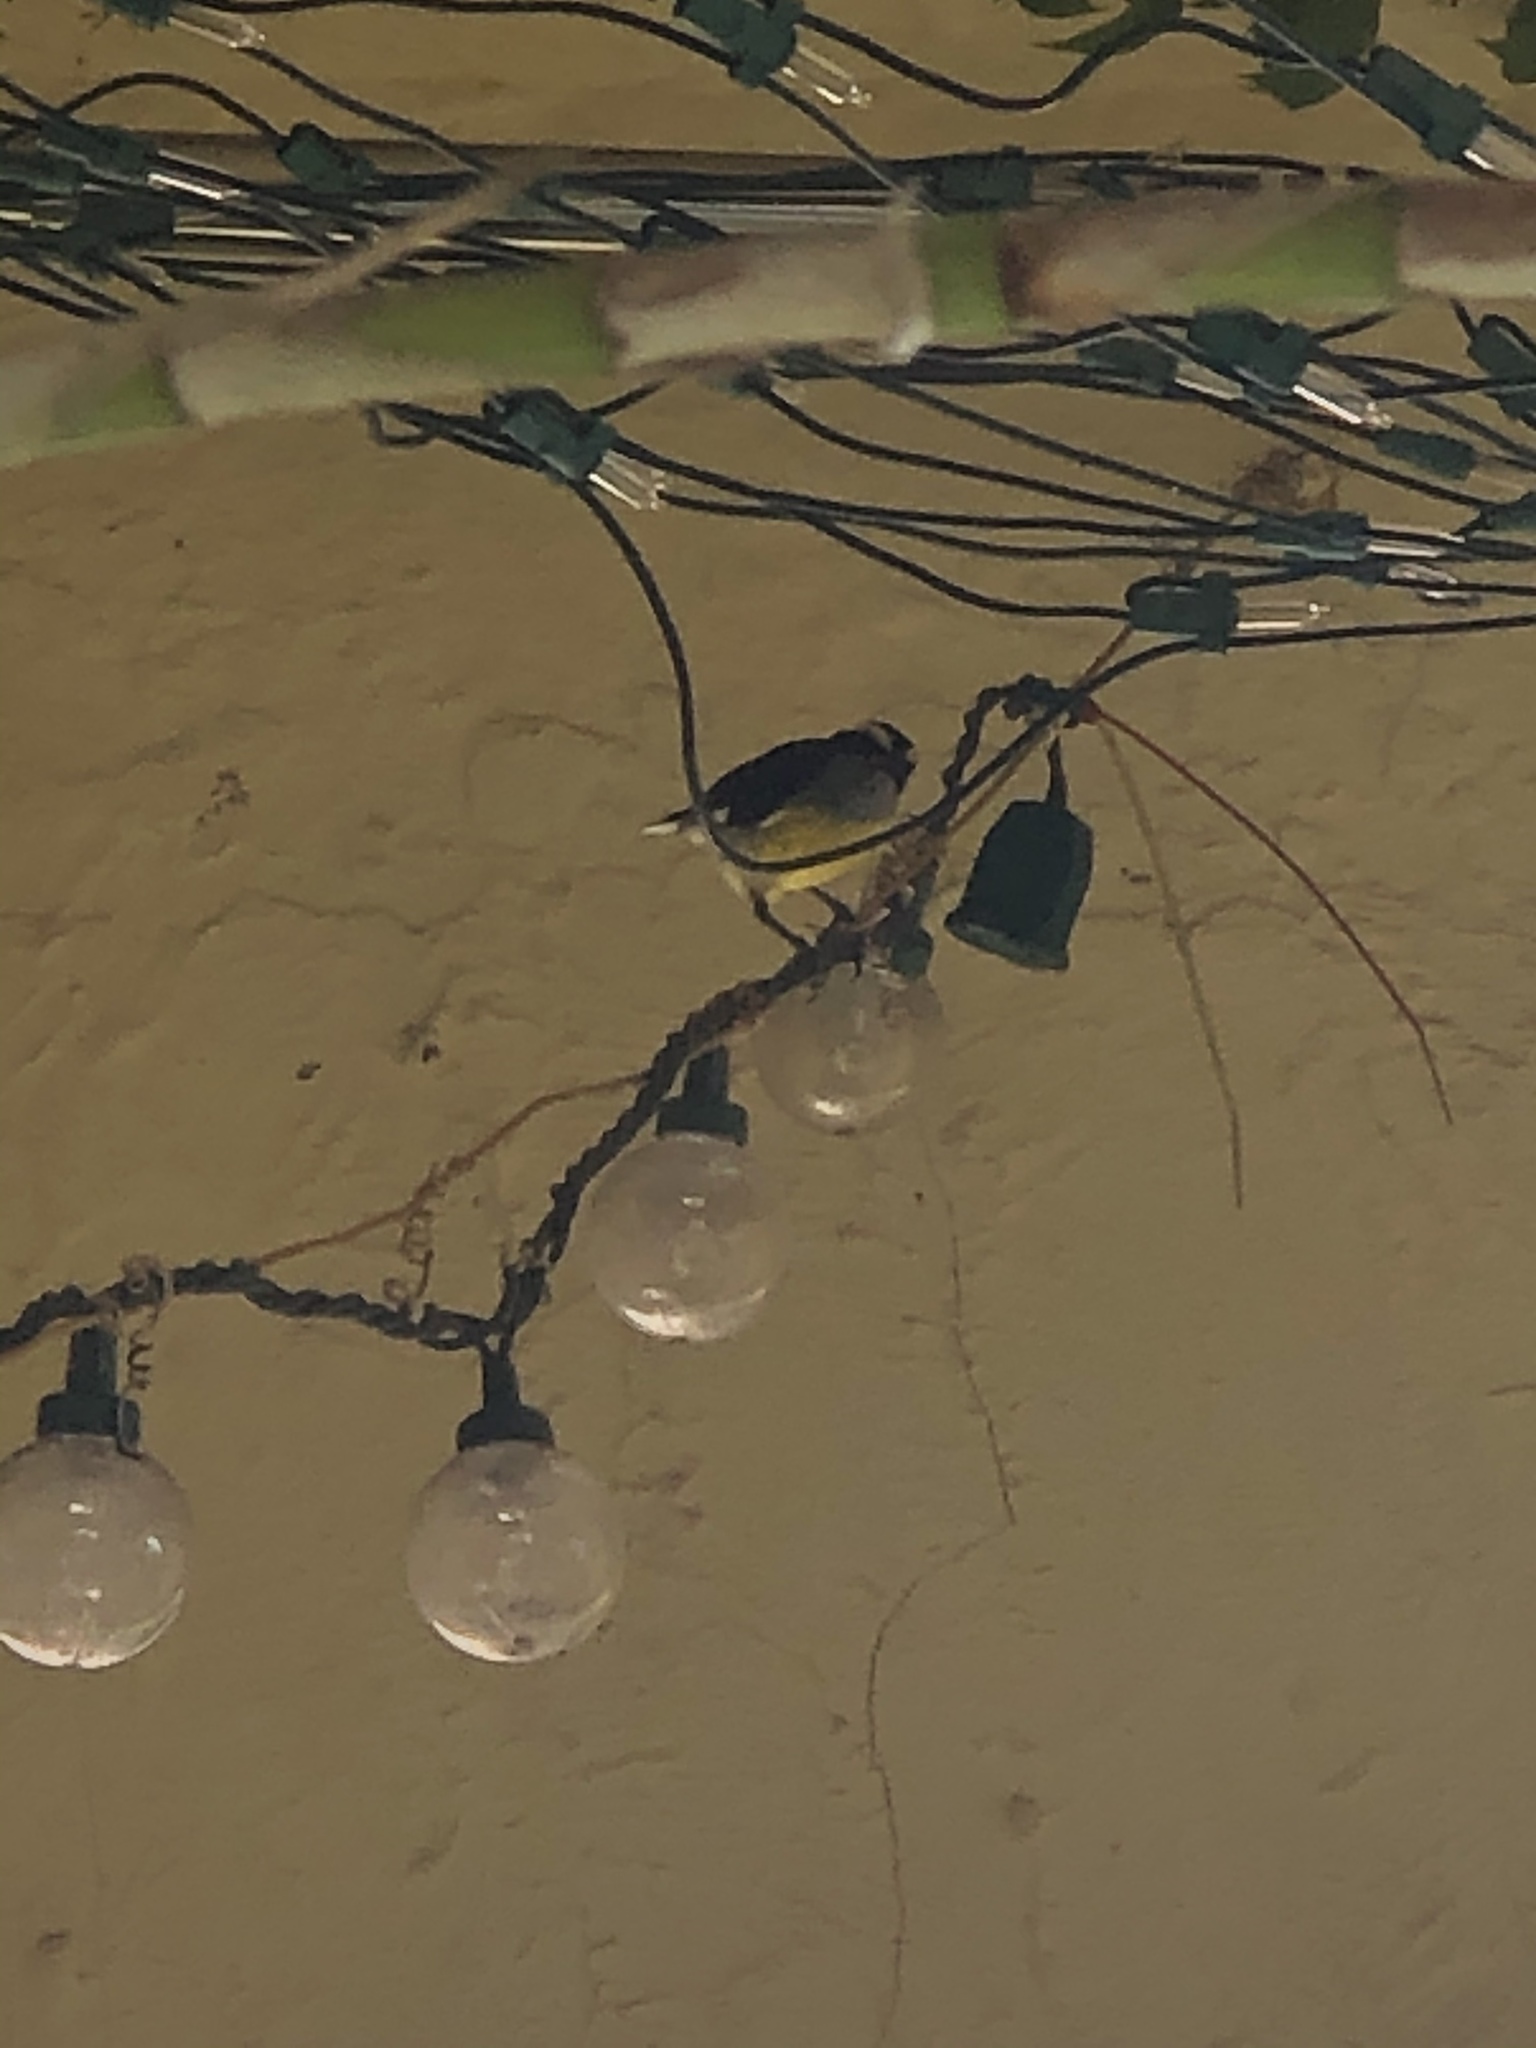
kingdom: Animalia
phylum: Chordata
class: Aves
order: Passeriformes
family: Thraupidae
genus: Coereba
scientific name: Coereba flaveola
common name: Bananaquit
